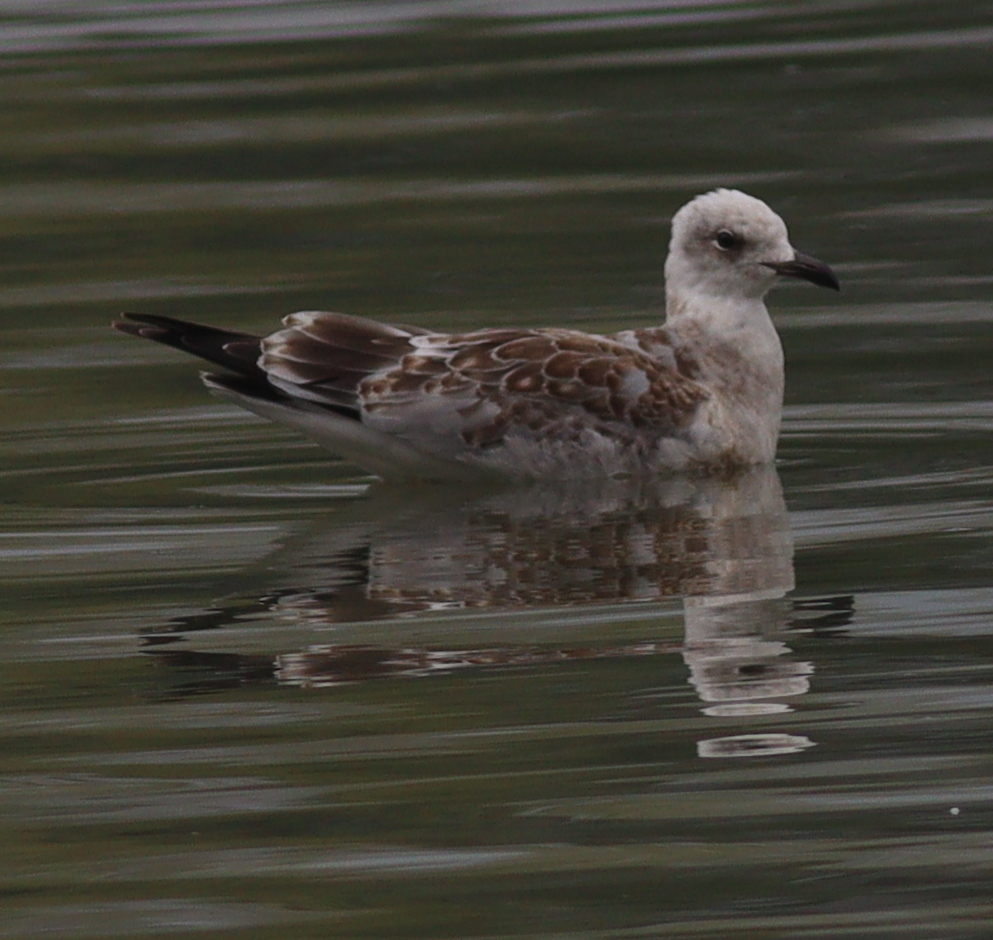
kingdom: Animalia
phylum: Chordata
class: Aves
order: Charadriiformes
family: Laridae
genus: Ichthyaetus
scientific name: Ichthyaetus melanocephalus
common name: Mediterranean gull
